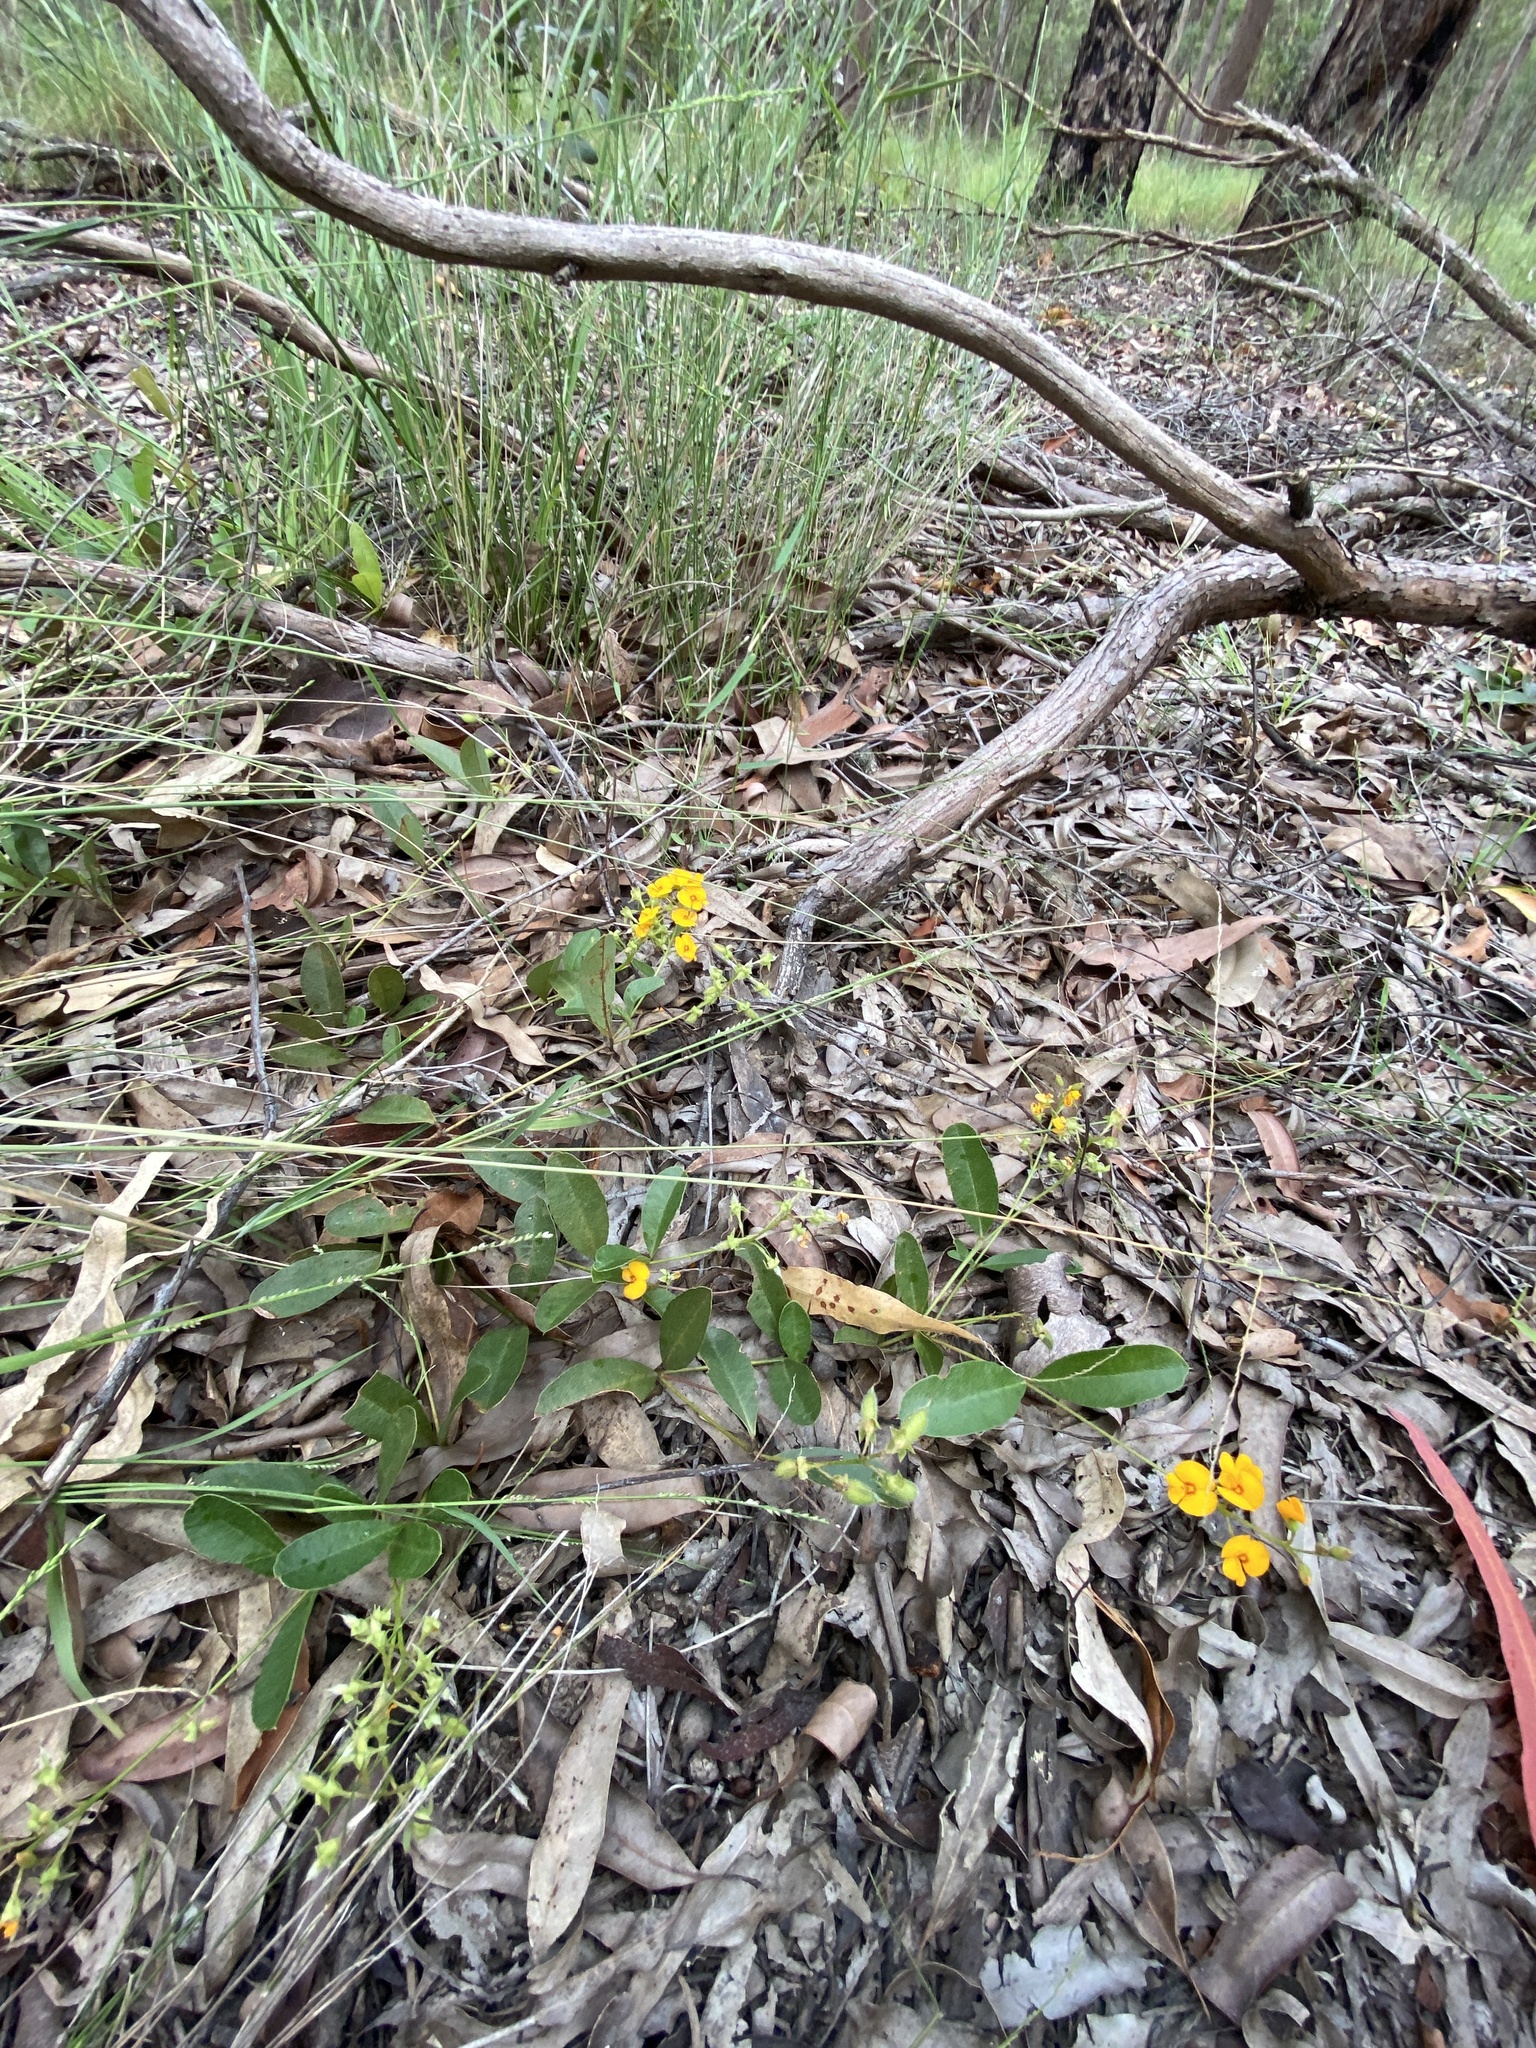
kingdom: Plantae
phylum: Tracheophyta
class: Magnoliopsida
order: Fabales
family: Fabaceae
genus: Podolobium
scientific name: Podolobium scandens
